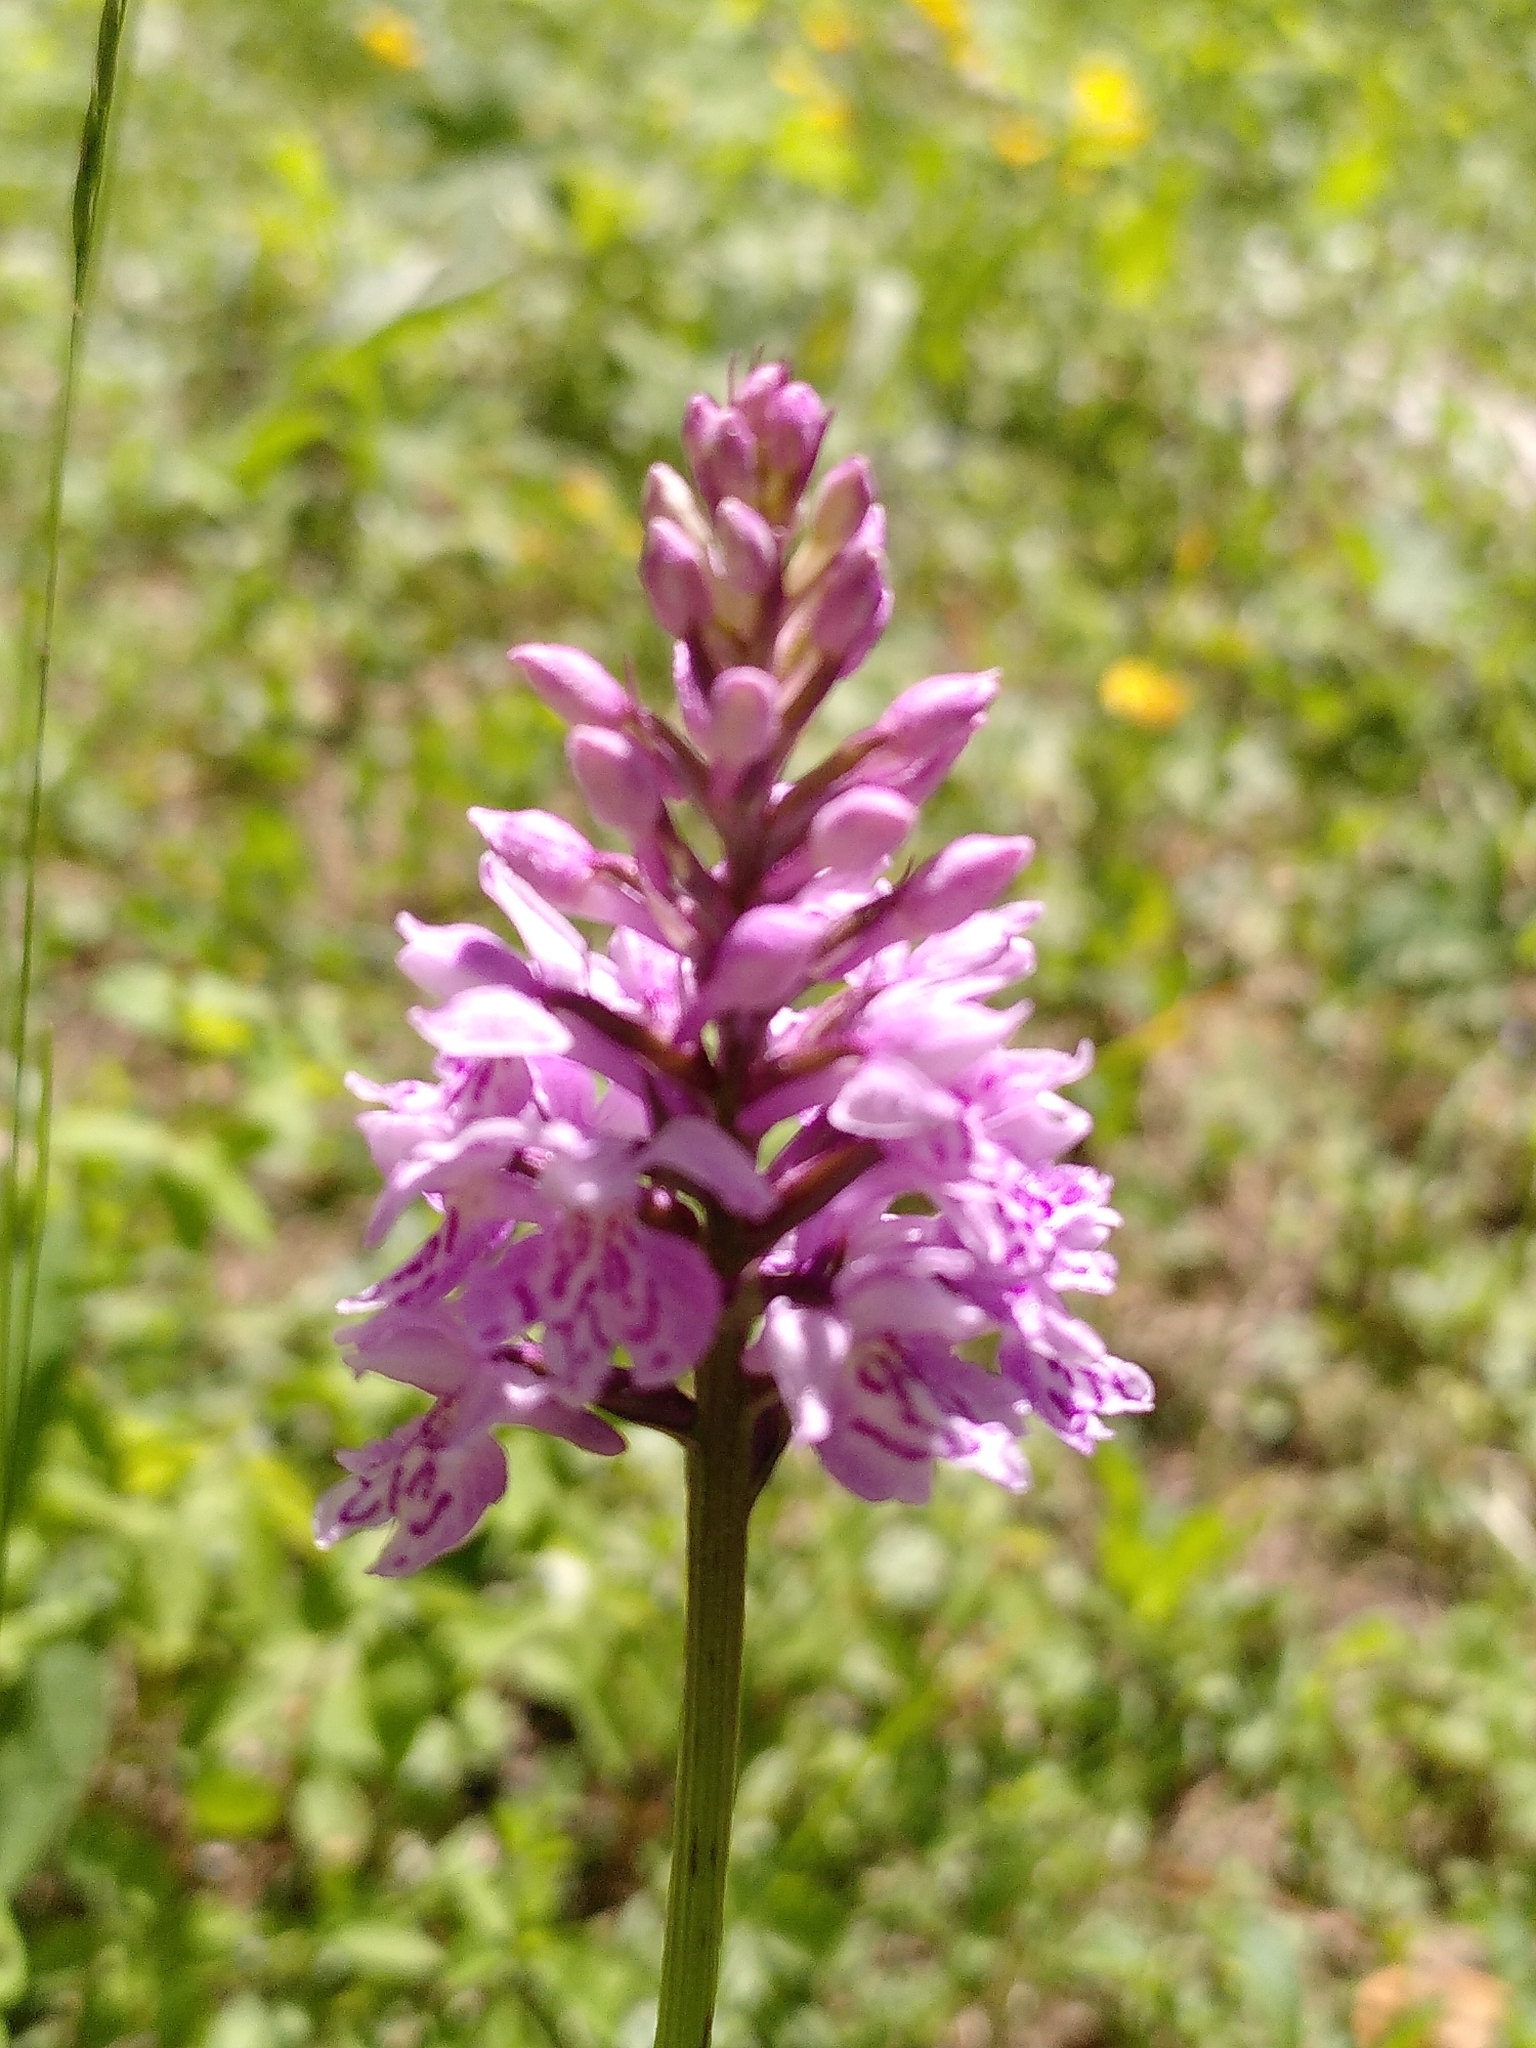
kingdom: Plantae
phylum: Tracheophyta
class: Liliopsida
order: Asparagales
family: Orchidaceae
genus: Dactylorhiza
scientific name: Dactylorhiza maculata
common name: Heath spotted-orchid
